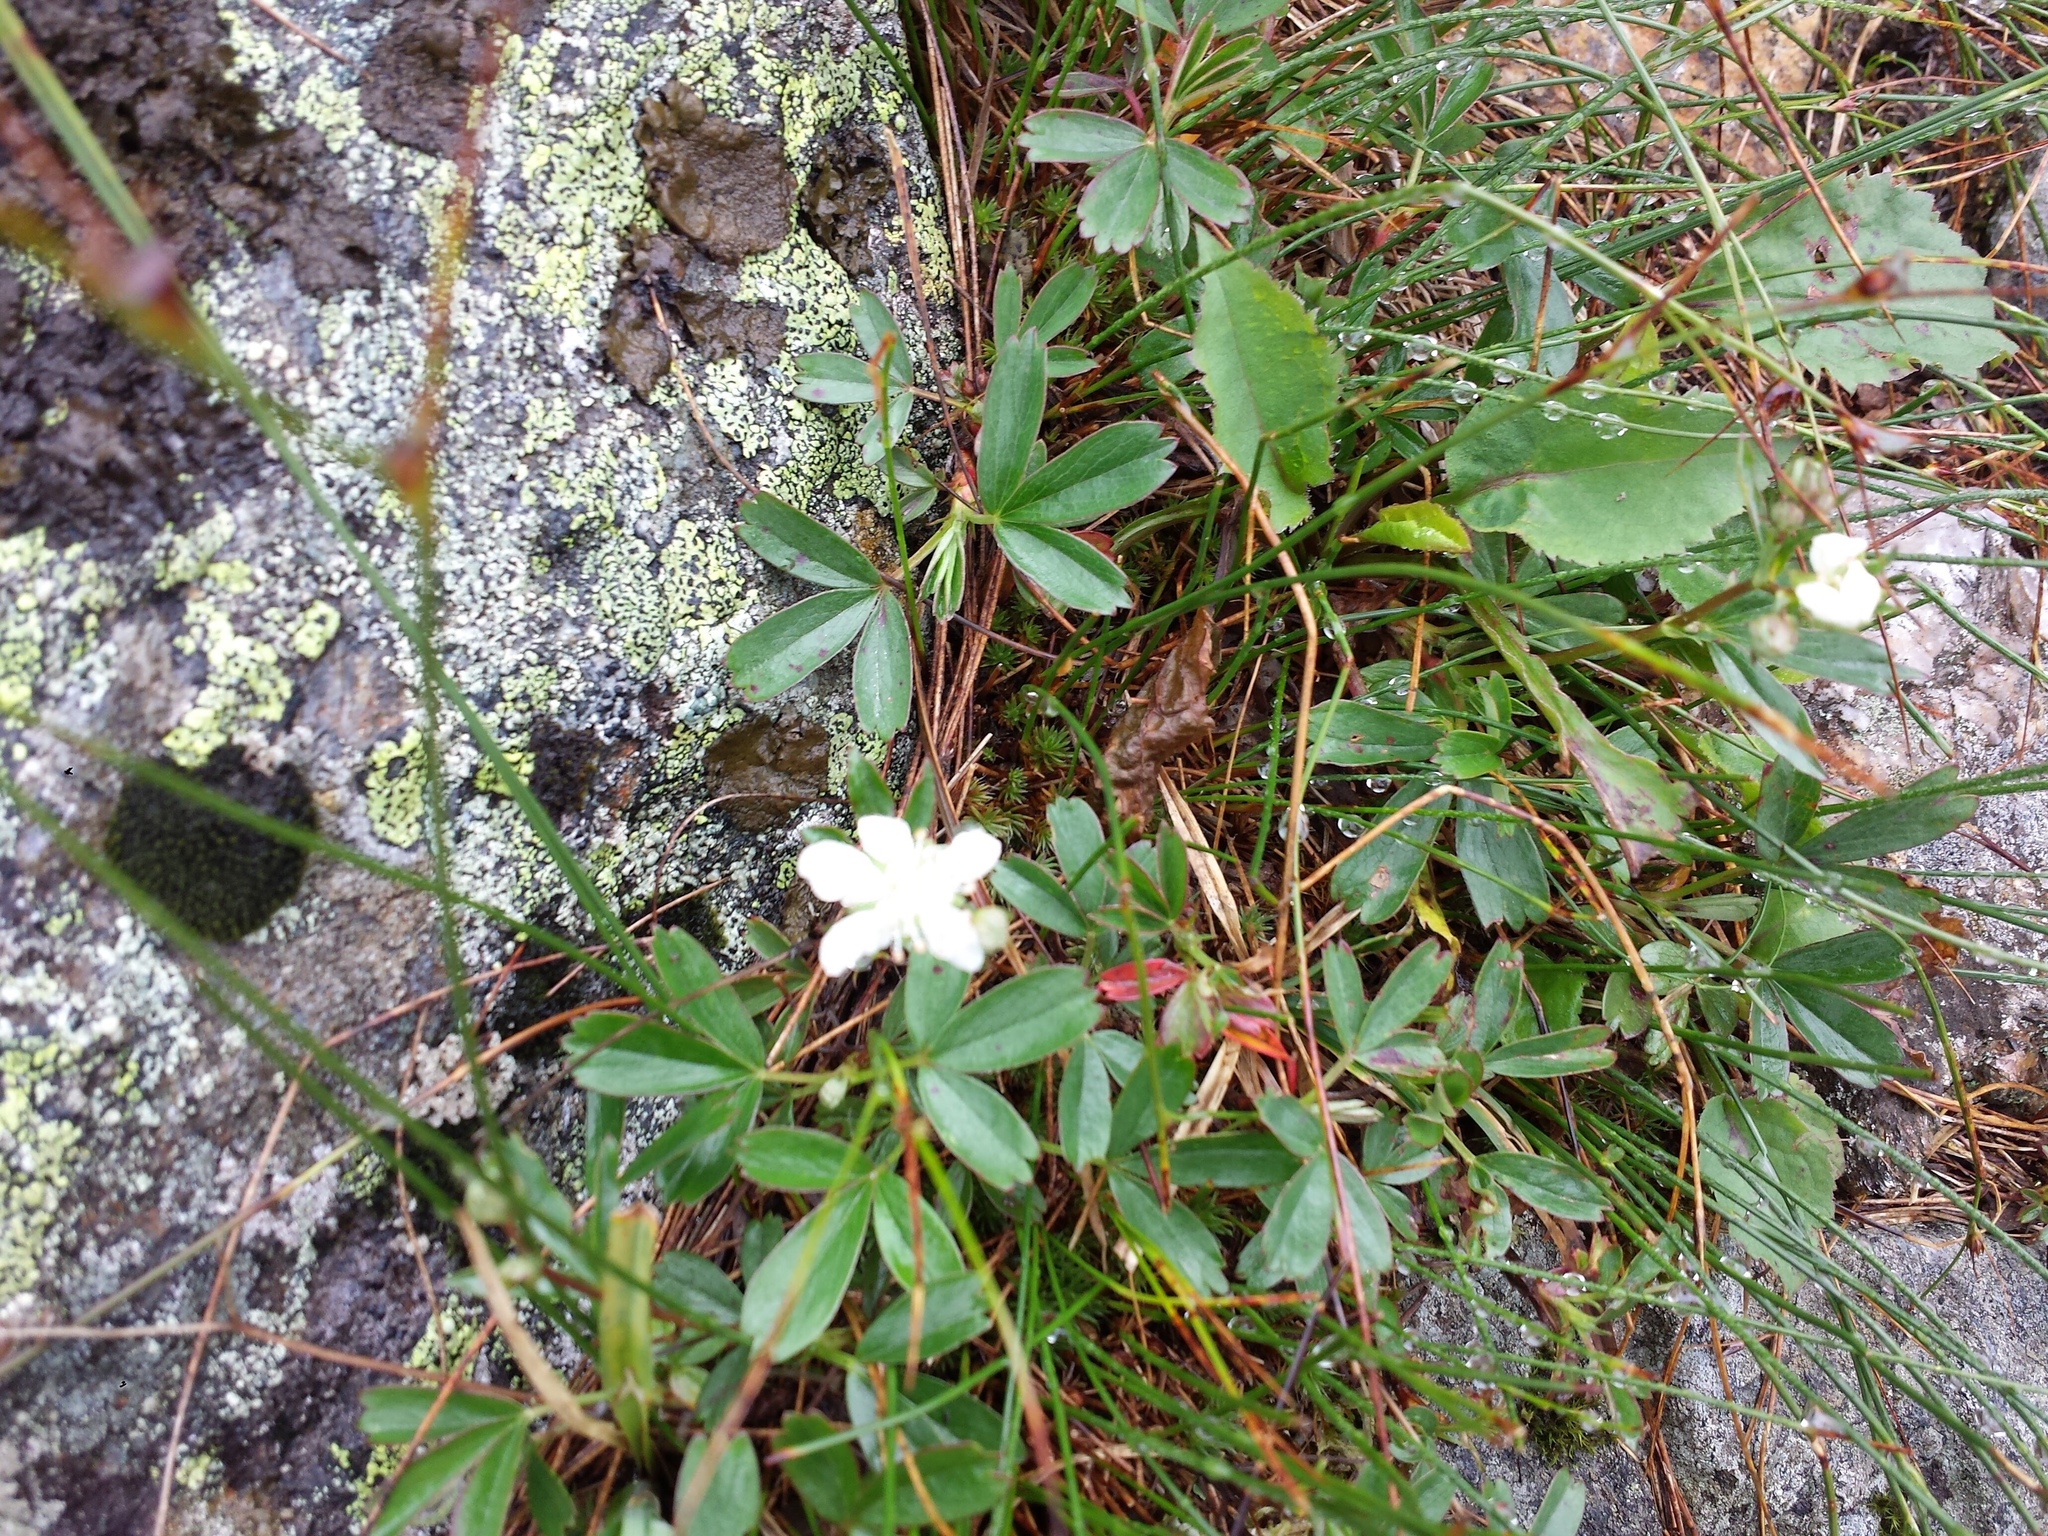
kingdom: Plantae
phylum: Tracheophyta
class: Magnoliopsida
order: Rosales
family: Rosaceae
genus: Sibbaldia
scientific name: Sibbaldia tridentata
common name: Three-toothed cinquefoil
